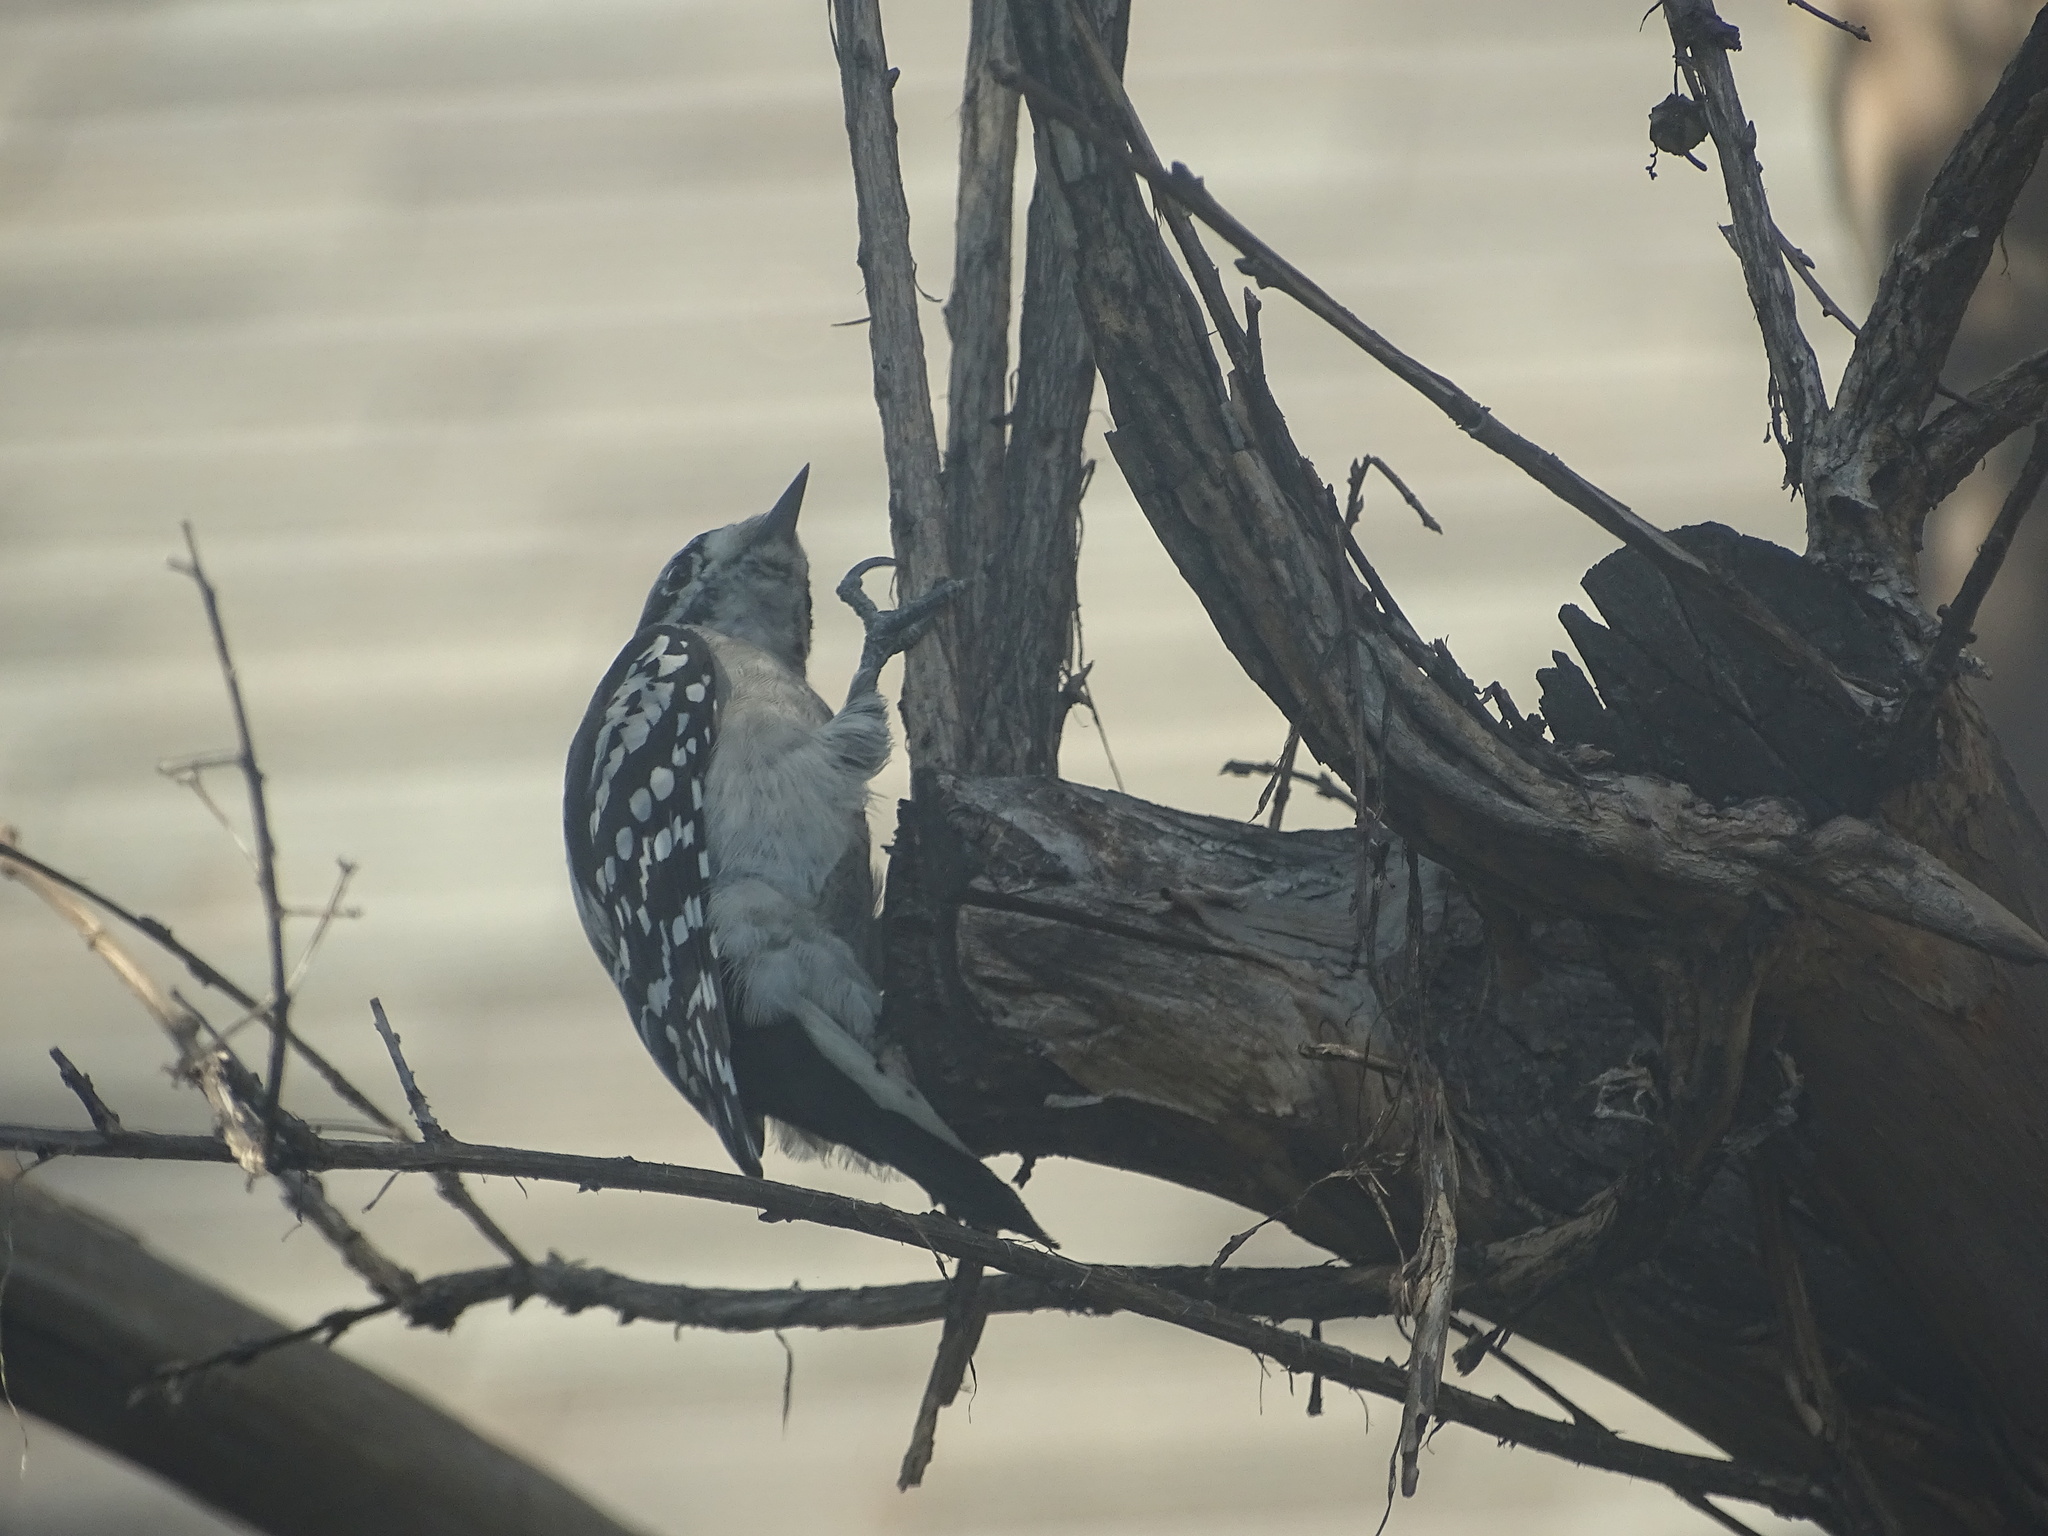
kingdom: Animalia
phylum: Chordata
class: Aves
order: Piciformes
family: Picidae
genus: Dryobates
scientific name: Dryobates pubescens
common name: Downy woodpecker
